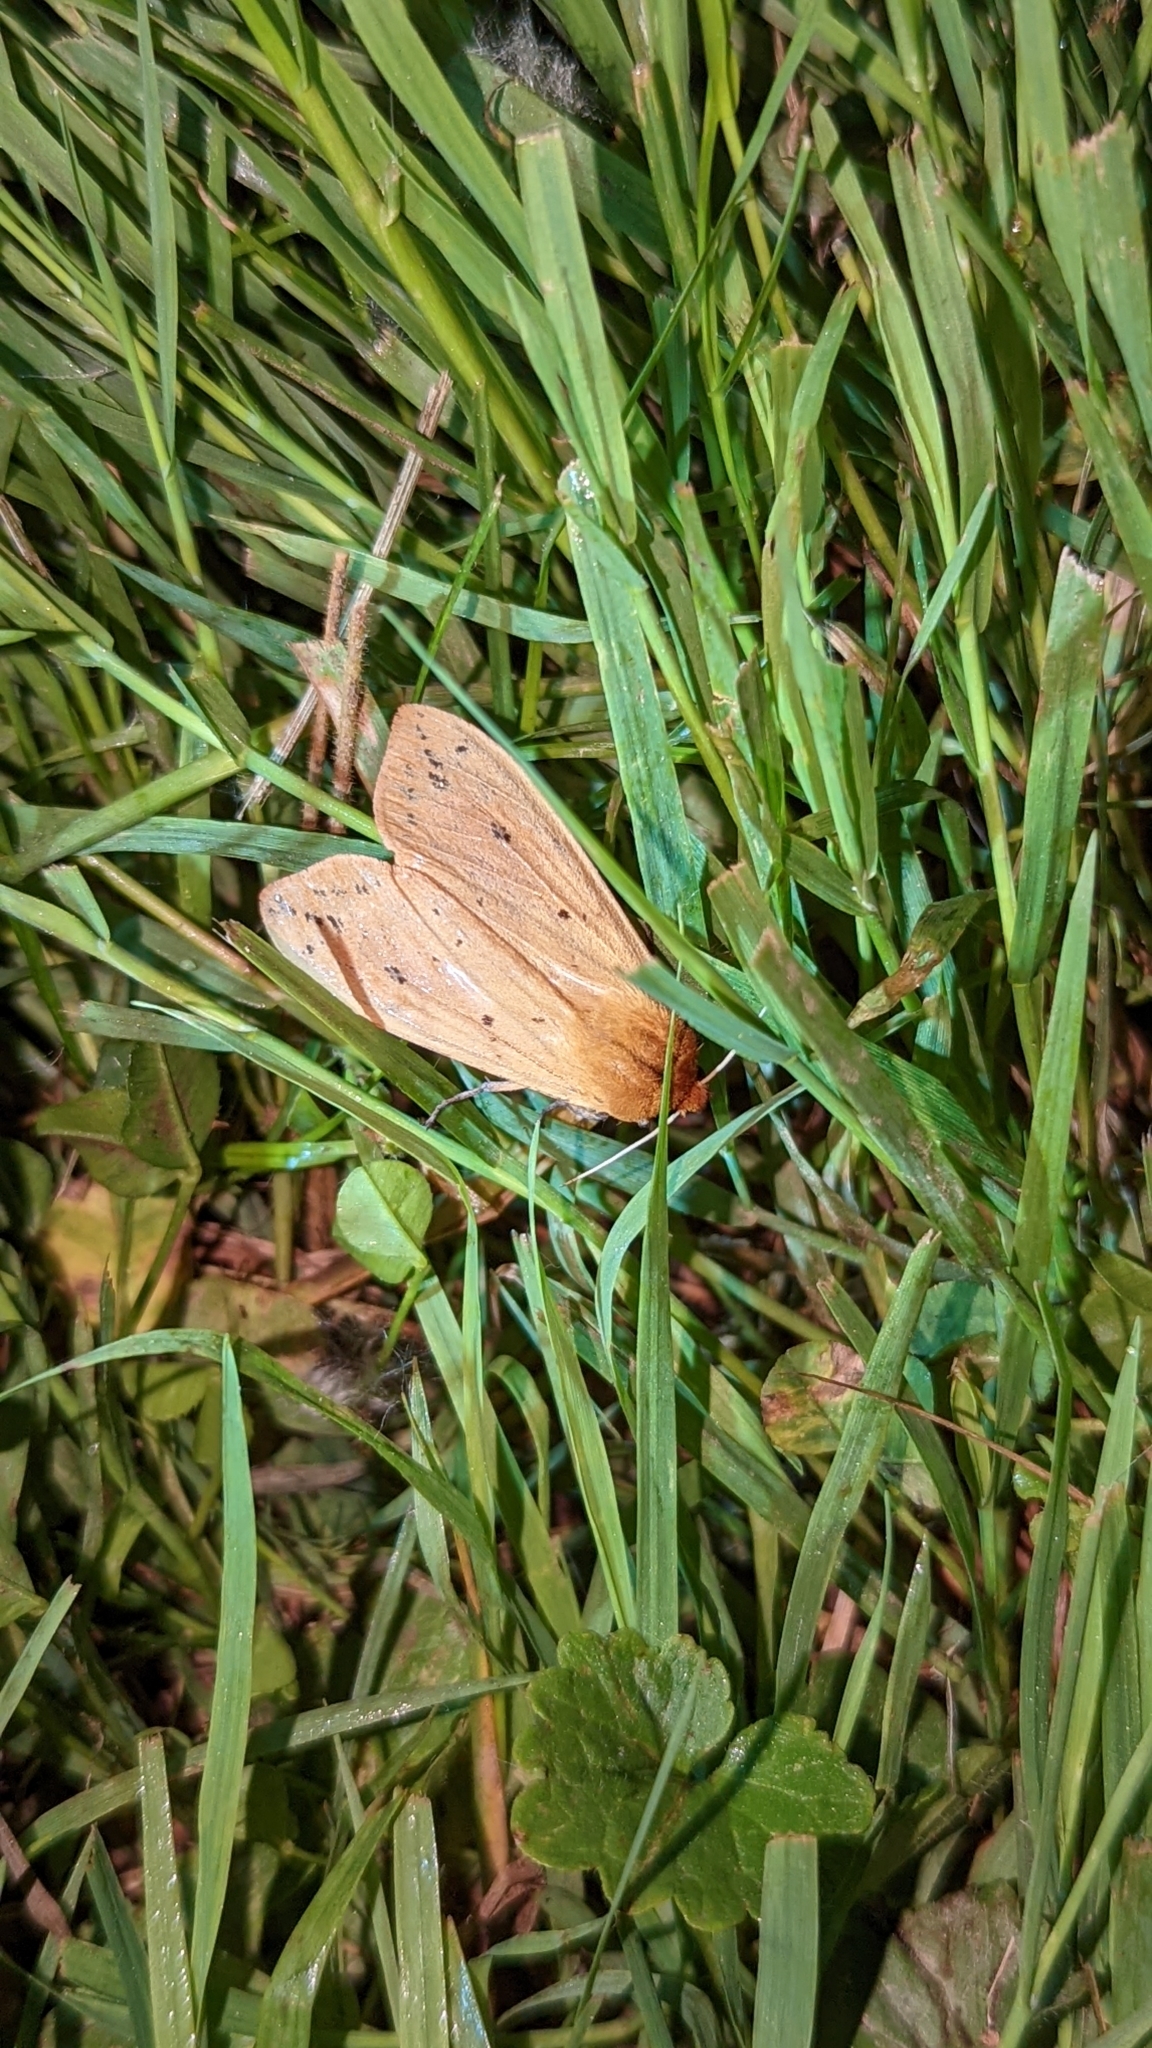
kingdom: Animalia
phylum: Arthropoda
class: Insecta
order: Lepidoptera
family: Erebidae
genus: Pyrrharctia
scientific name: Pyrrharctia isabella
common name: Isabella tiger moth
